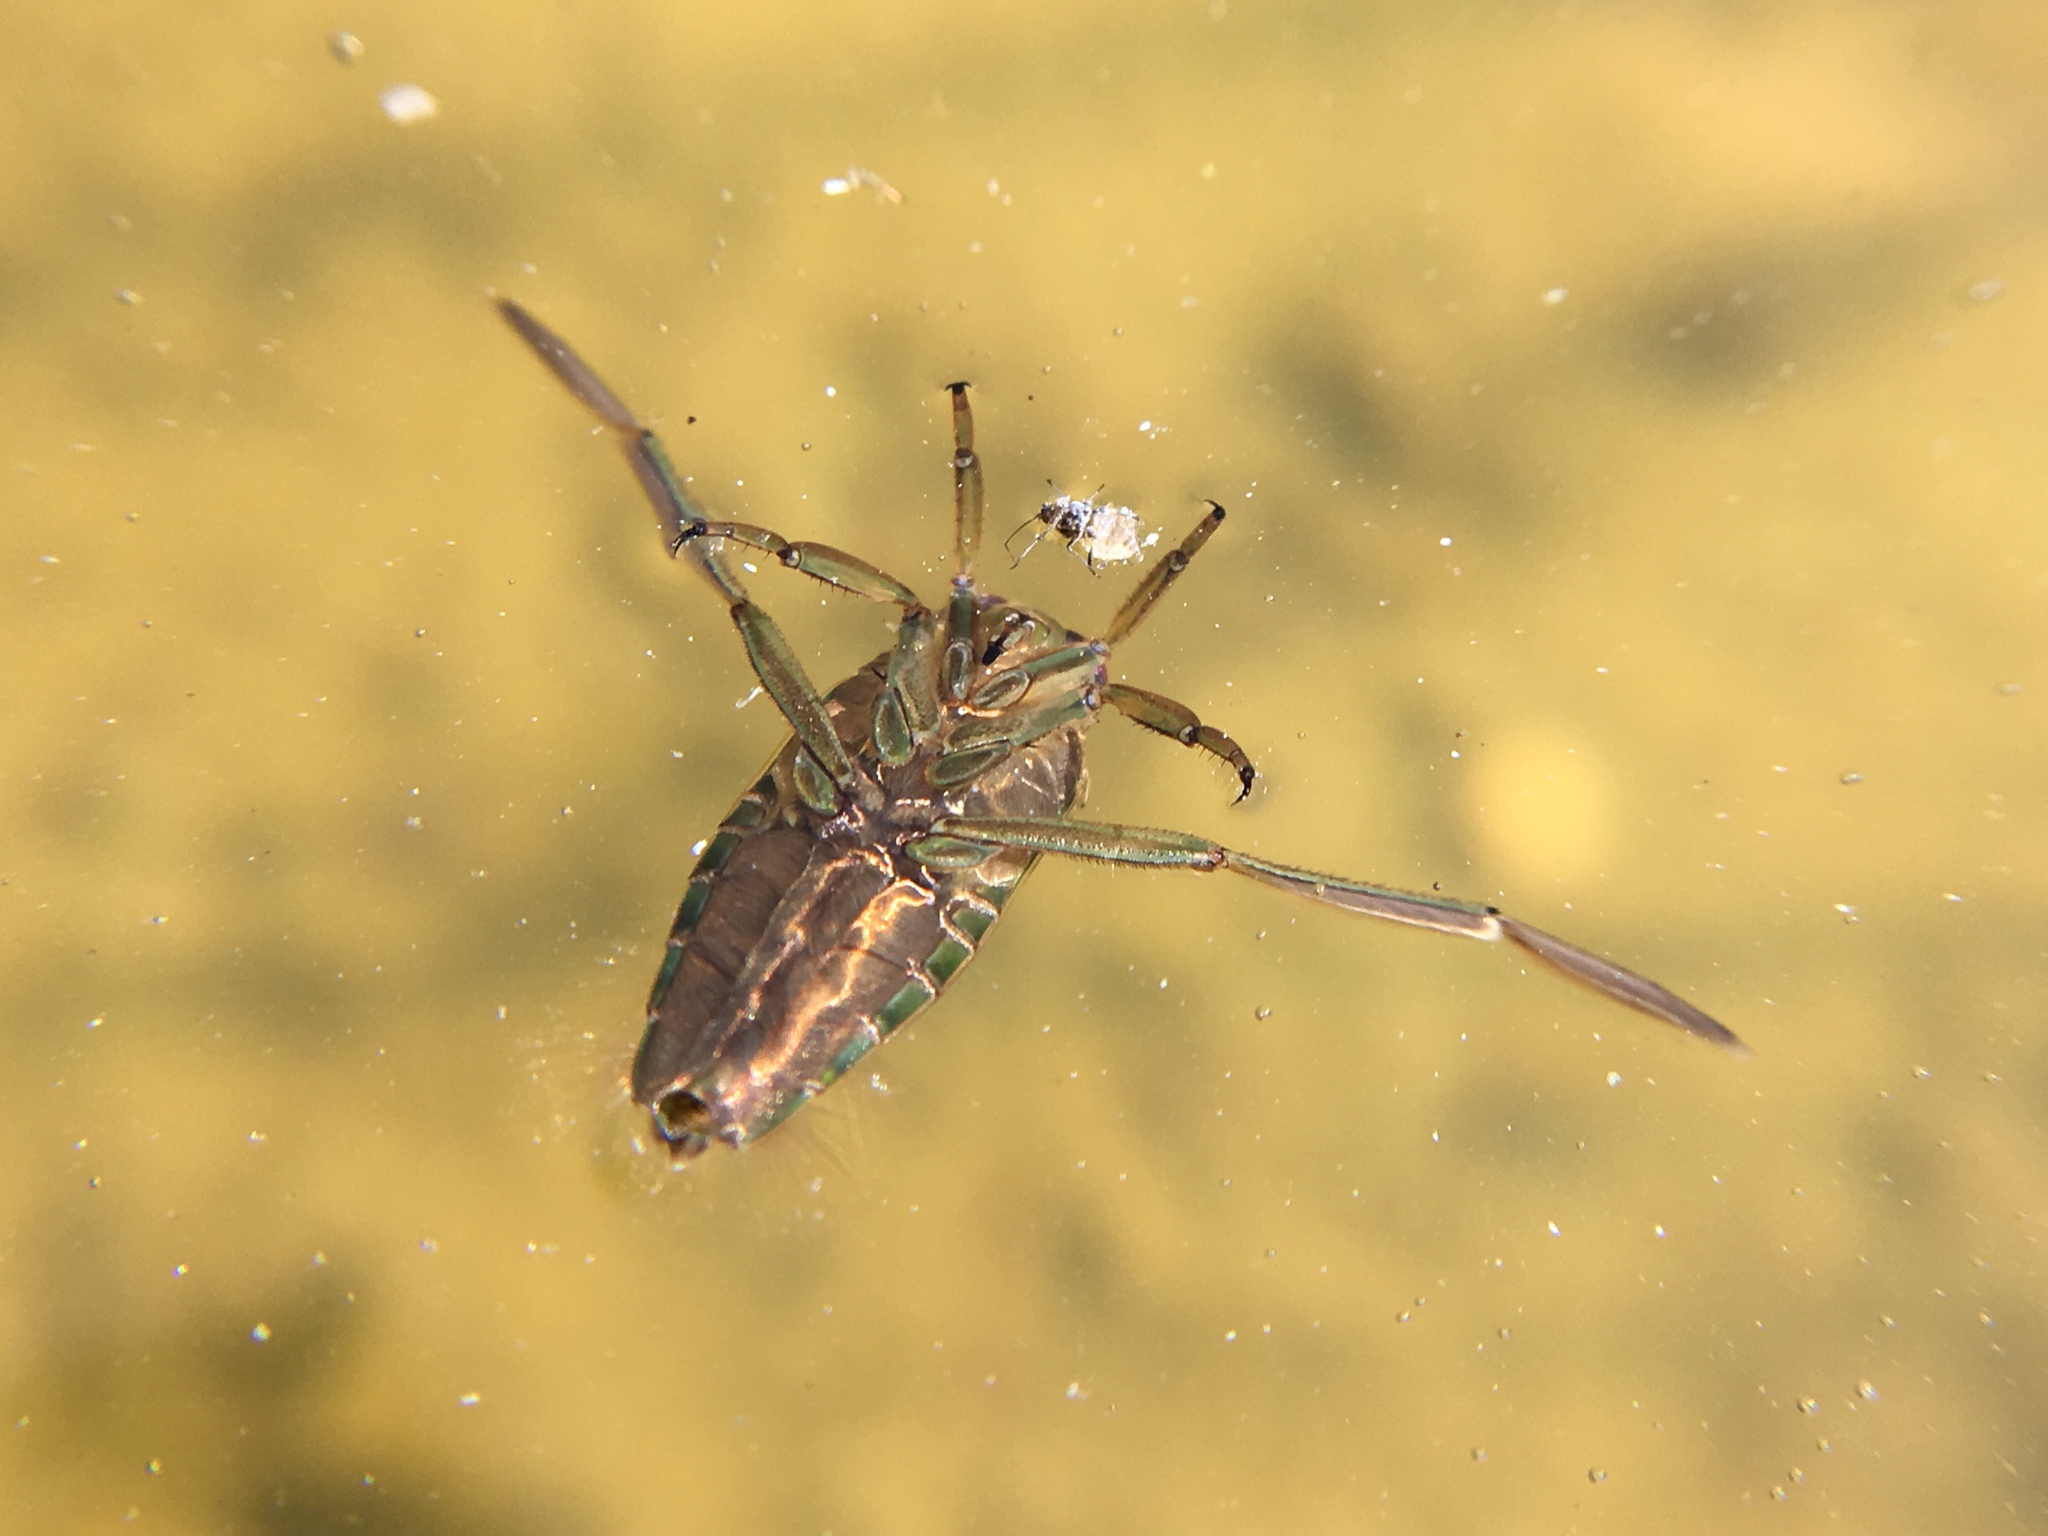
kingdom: Animalia
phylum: Arthropoda
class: Insecta
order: Hemiptera
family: Notonectidae
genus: Notonecta
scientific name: Notonecta
